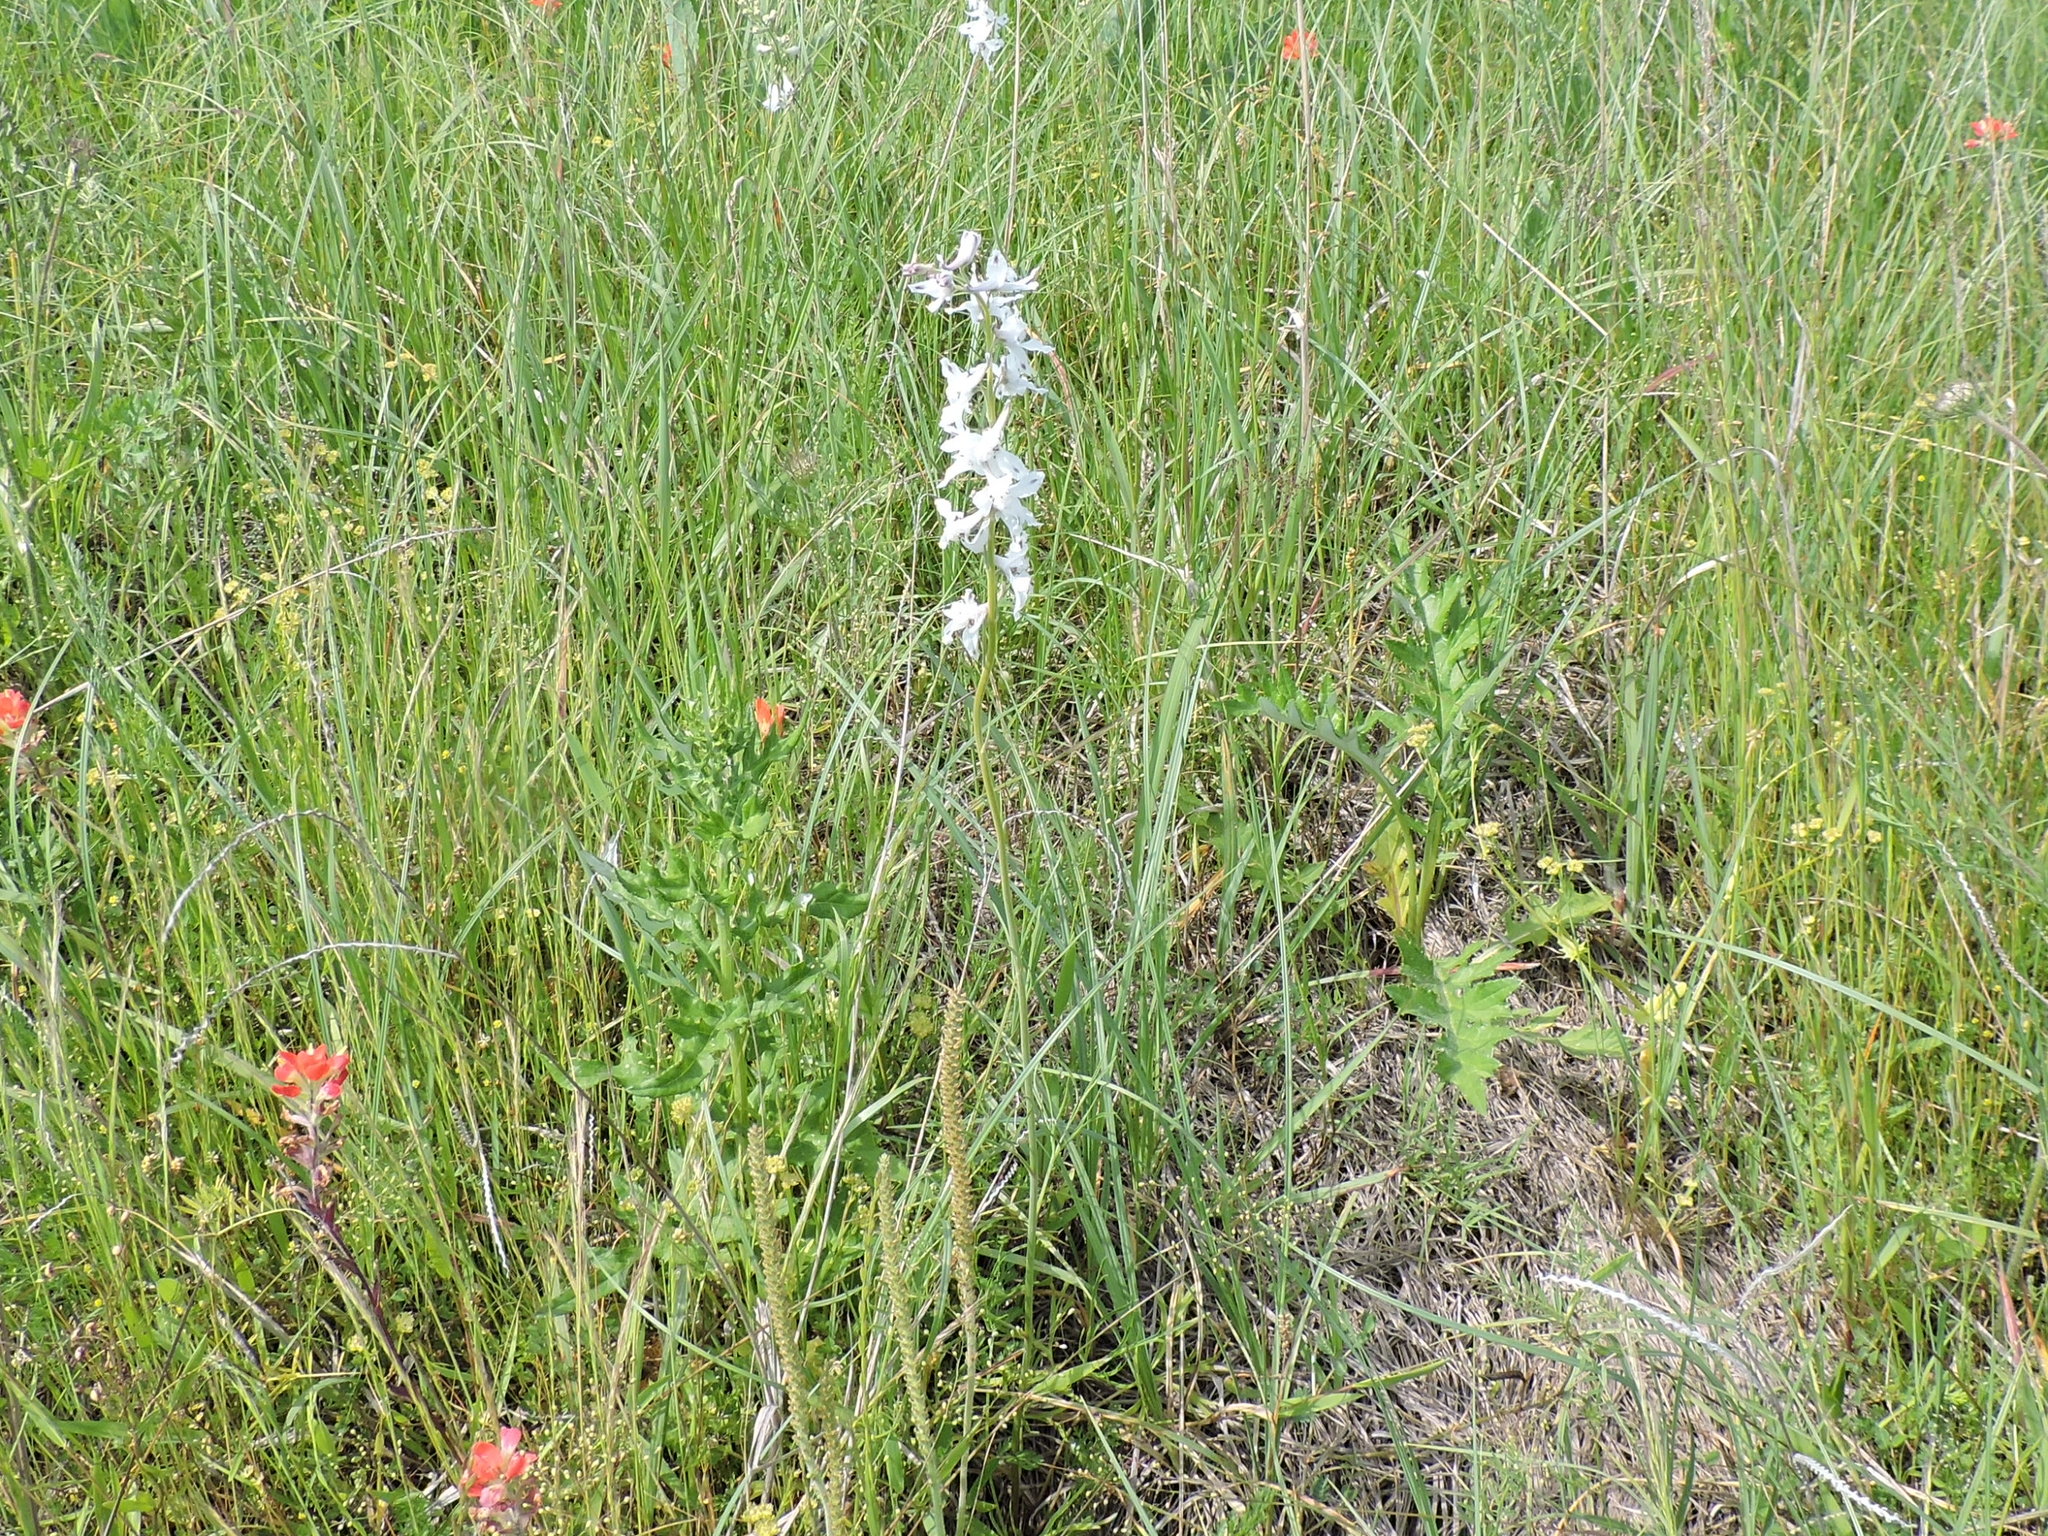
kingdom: Plantae
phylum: Tracheophyta
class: Magnoliopsida
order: Ranunculales
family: Ranunculaceae
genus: Delphinium
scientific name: Delphinium carolinianum
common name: Carolina larkspur
